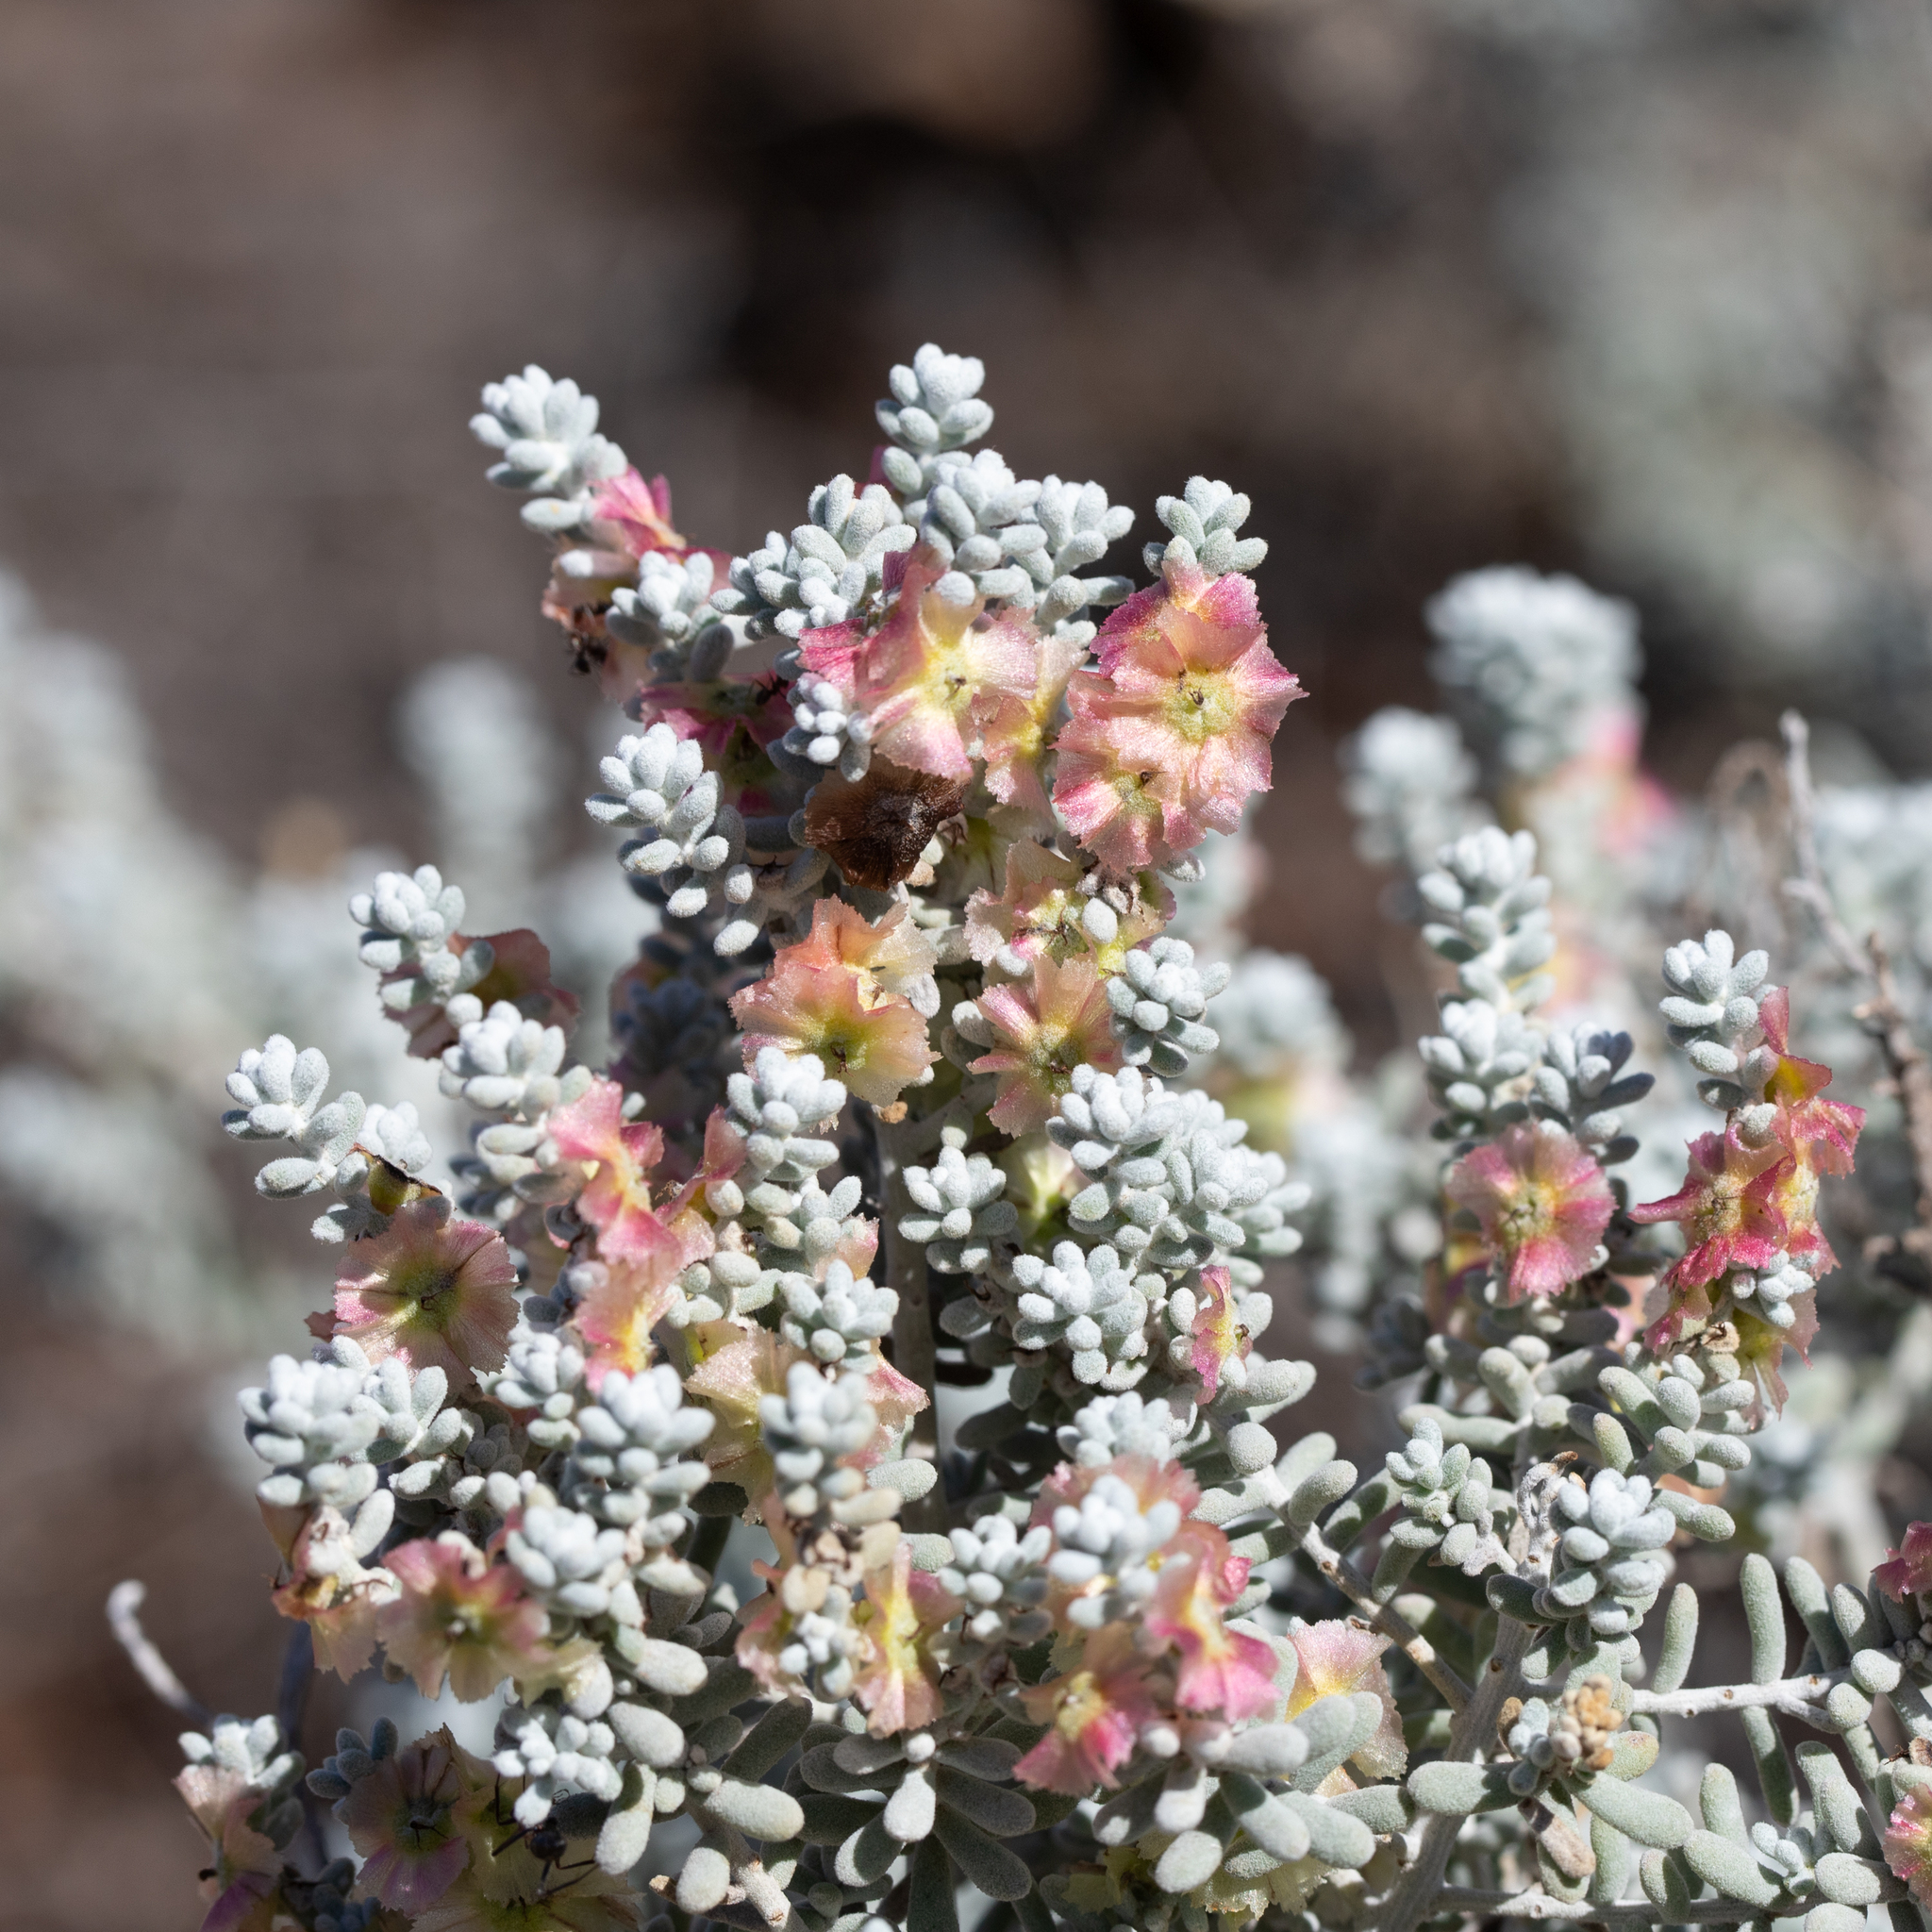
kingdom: Plantae
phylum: Tracheophyta
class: Magnoliopsida
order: Caryophyllales
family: Amaranthaceae
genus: Maireana
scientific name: Maireana sedifolia
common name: Hoary bluebush
